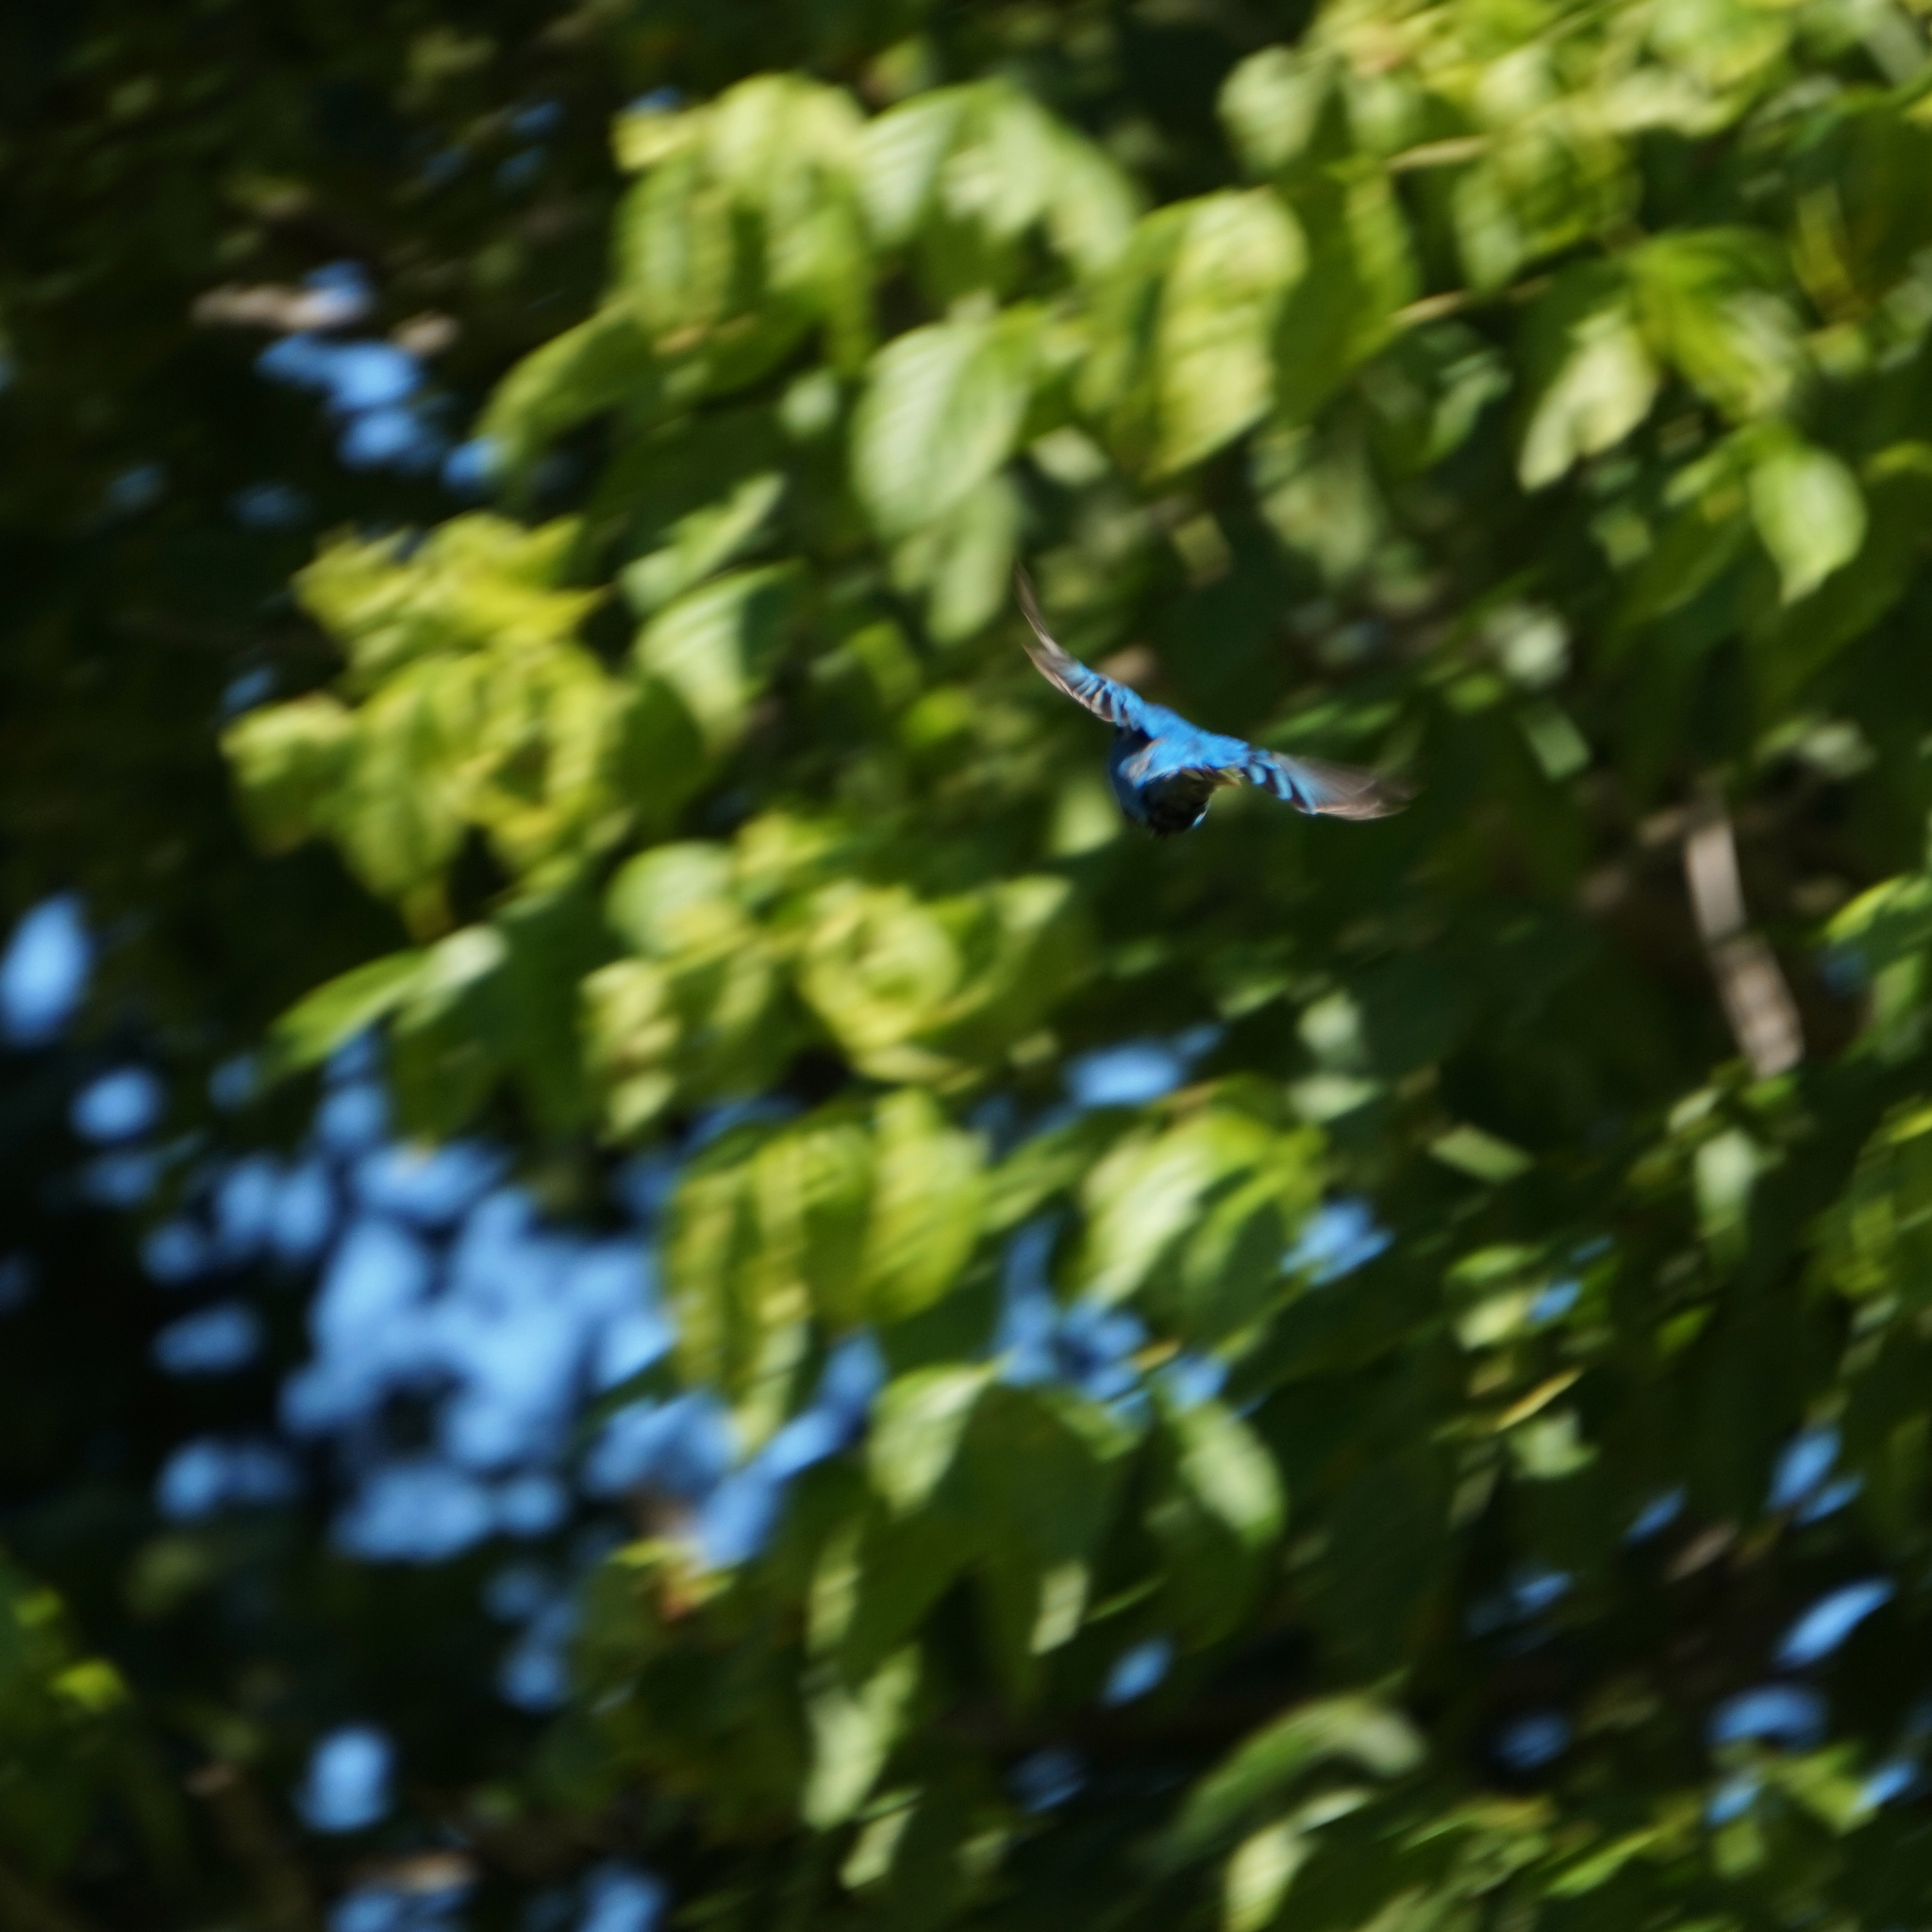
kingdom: Animalia
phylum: Chordata
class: Aves
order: Passeriformes
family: Cardinalidae
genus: Passerina
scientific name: Passerina cyanea
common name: Indigo bunting
